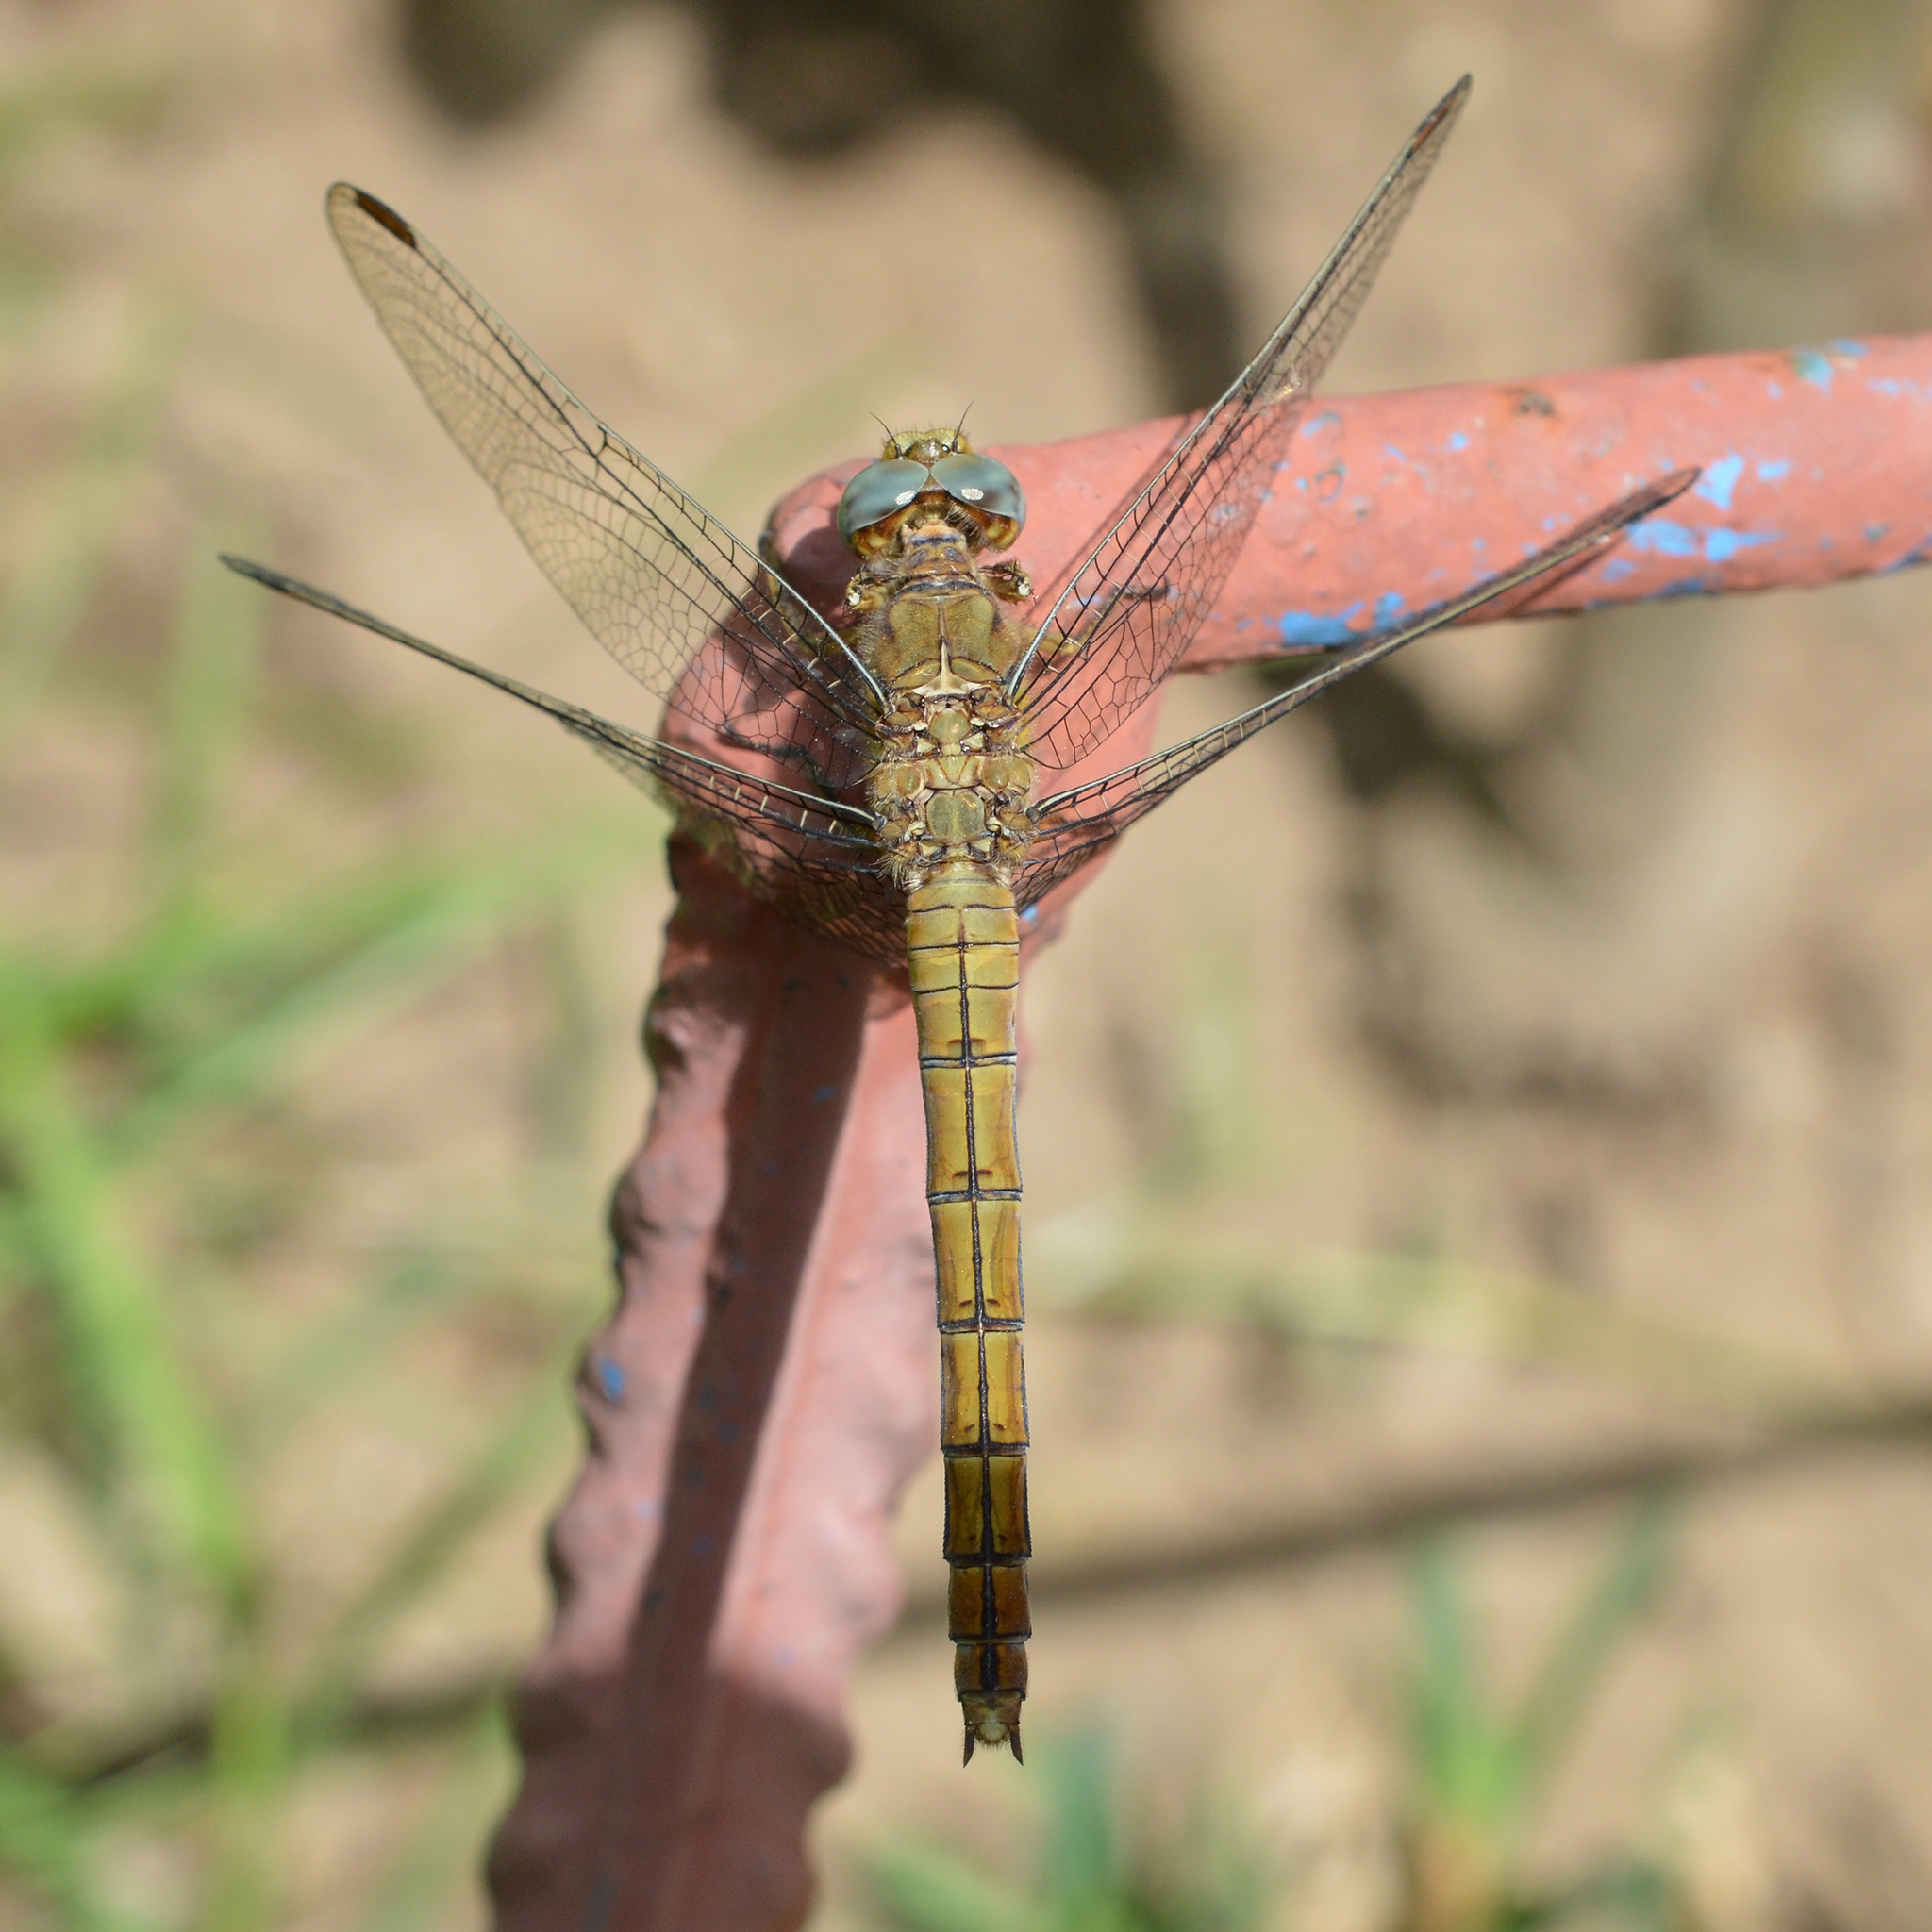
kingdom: Animalia
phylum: Arthropoda
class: Insecta
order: Odonata
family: Libellulidae
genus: Orthetrum
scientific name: Orthetrum coerulescens
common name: Keeled skimmer
